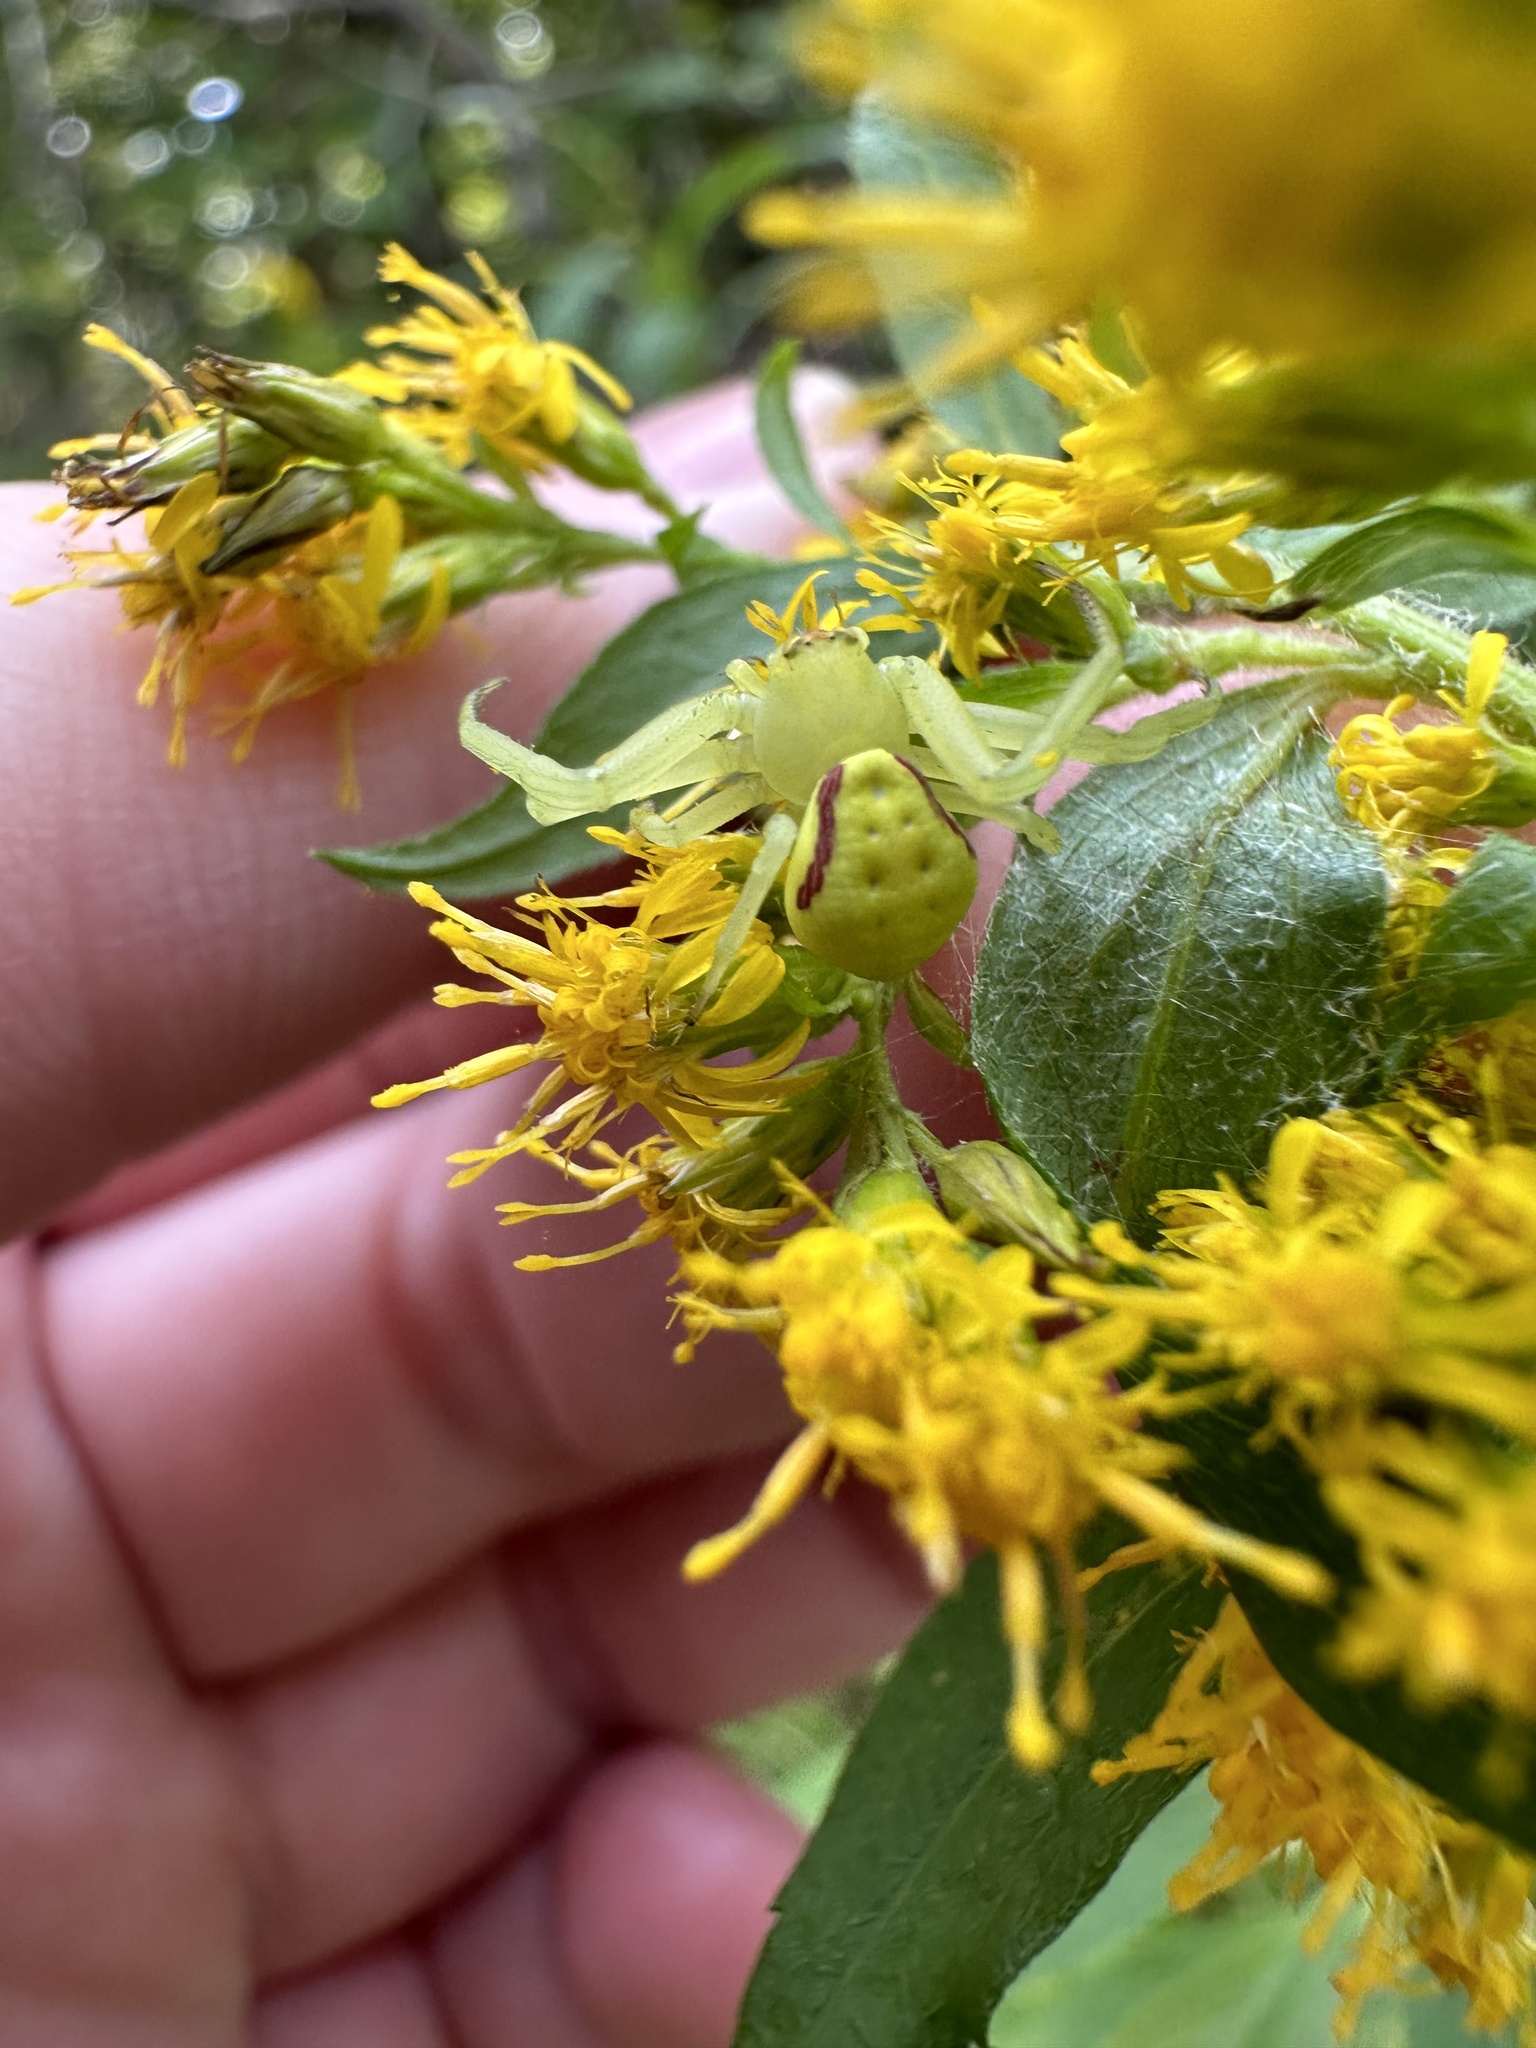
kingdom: Animalia
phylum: Arthropoda
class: Arachnida
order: Araneae
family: Thomisidae
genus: Misumena
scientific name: Misumena vatia
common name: Goldenrod crab spider
